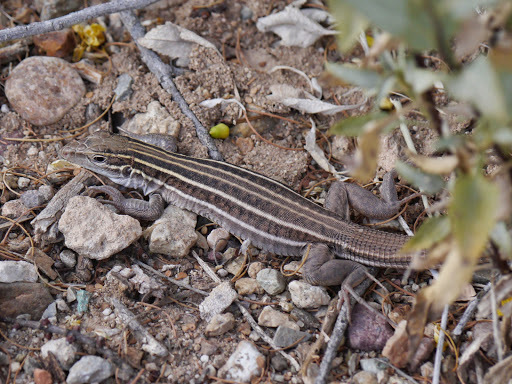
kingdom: Animalia
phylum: Chordata
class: Squamata
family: Teiidae
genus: Aspidoscelis
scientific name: Aspidoscelis sonorae
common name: Sonoran spotted whiptail
